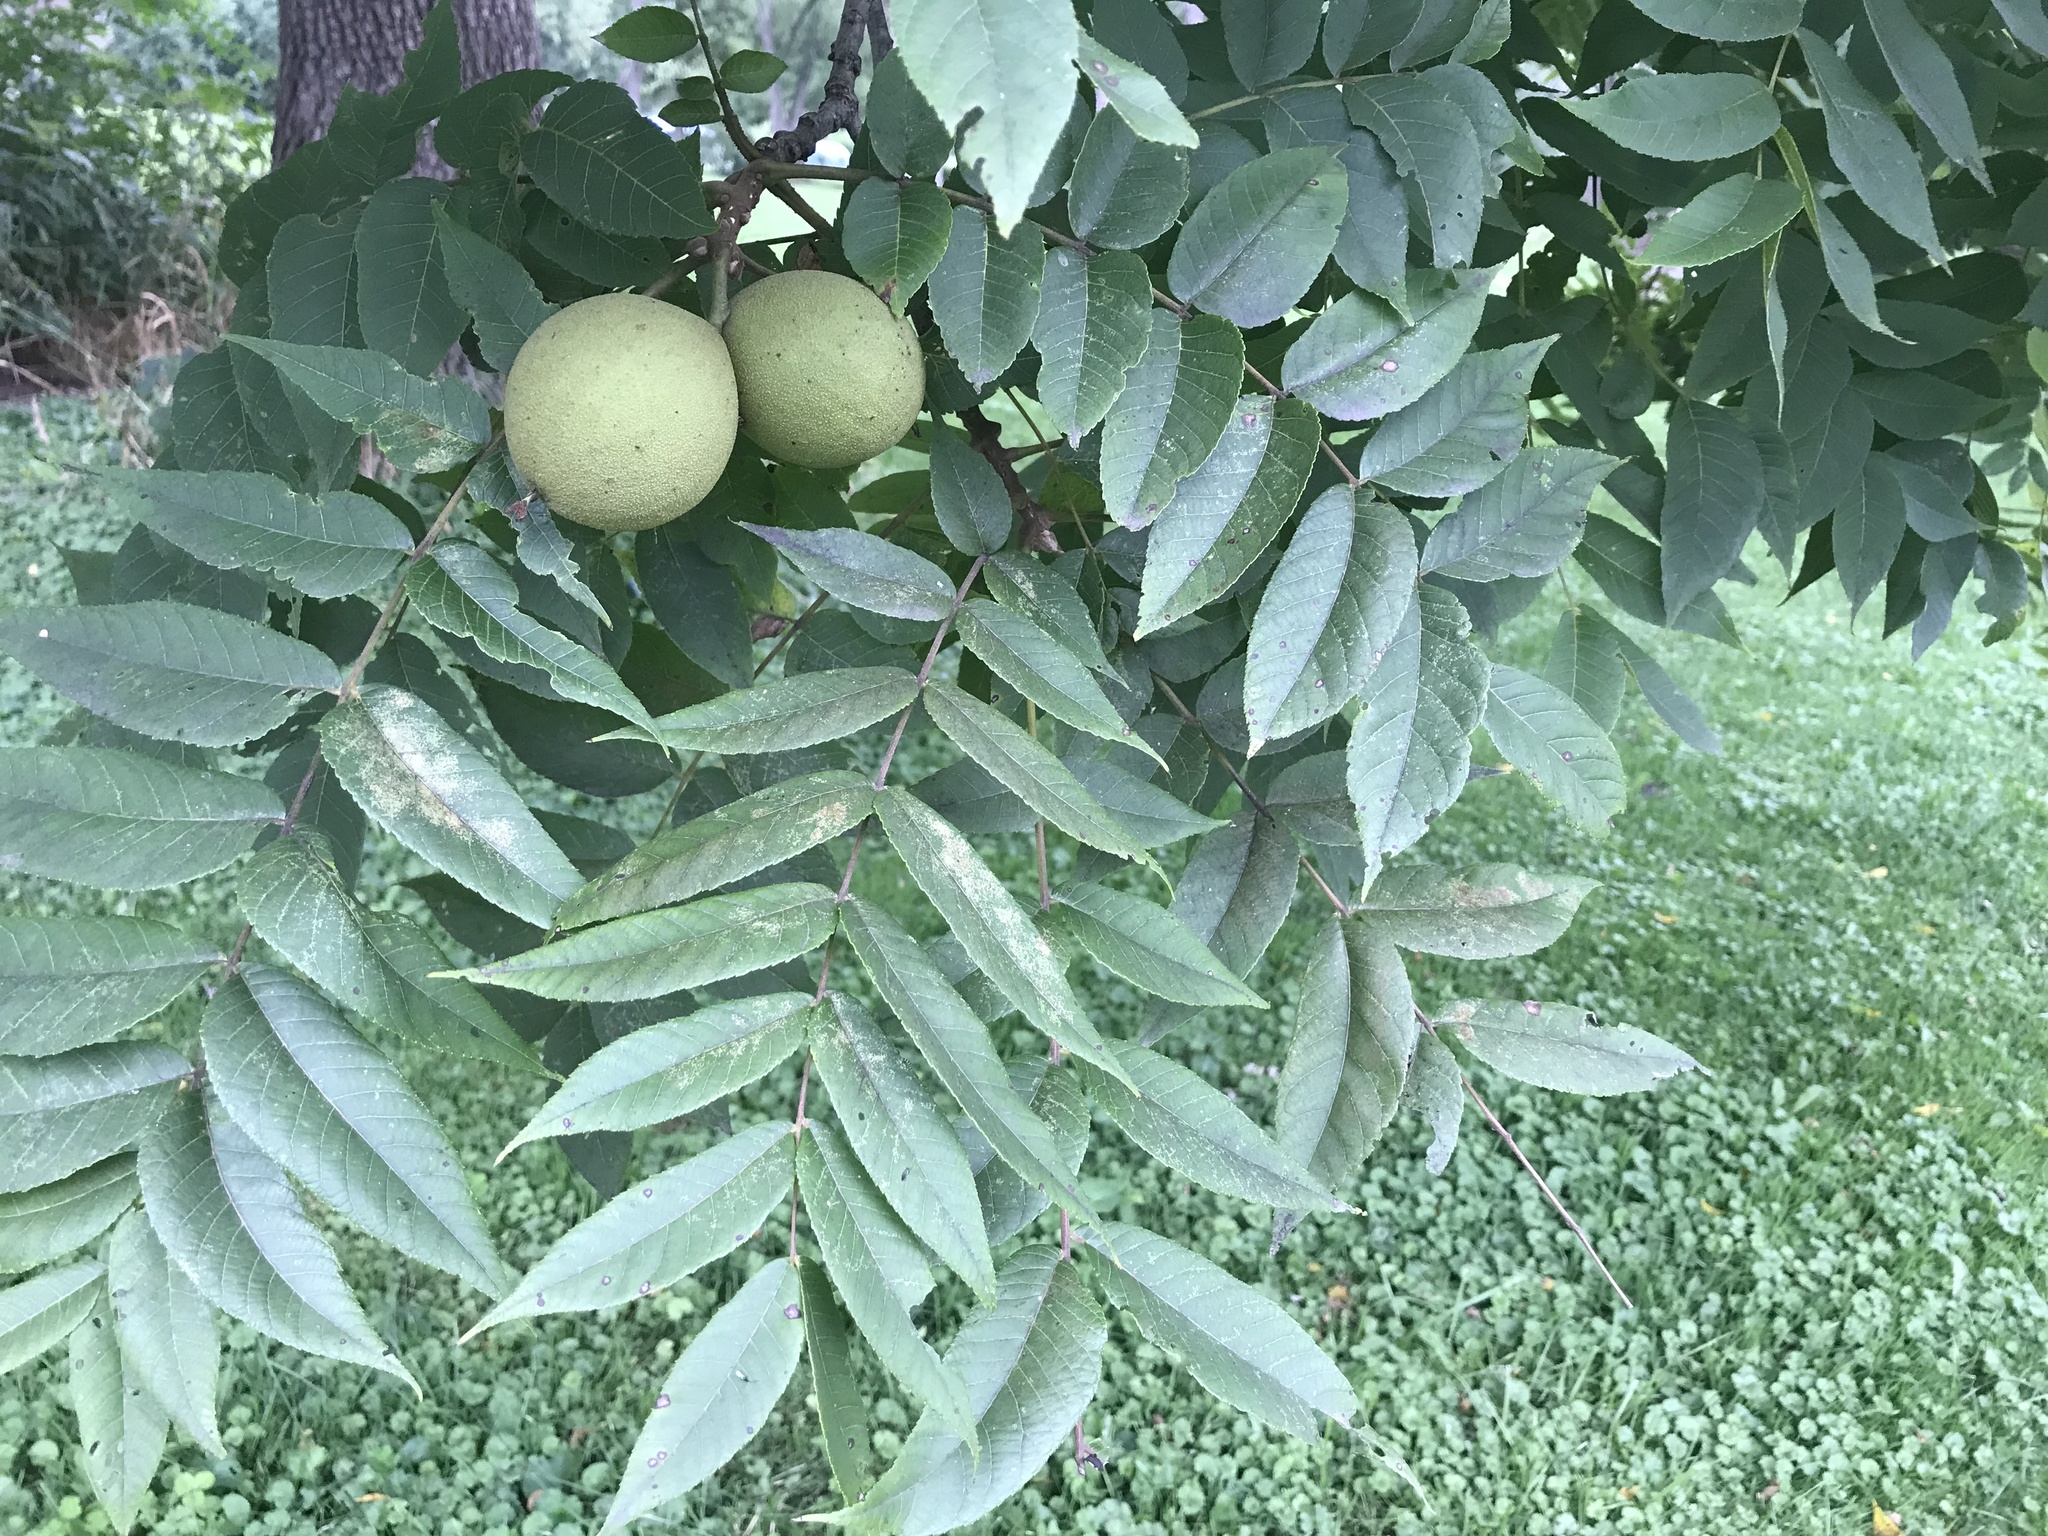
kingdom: Plantae
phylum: Tracheophyta
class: Magnoliopsida
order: Fagales
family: Juglandaceae
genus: Juglans
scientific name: Juglans nigra
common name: Black walnut
